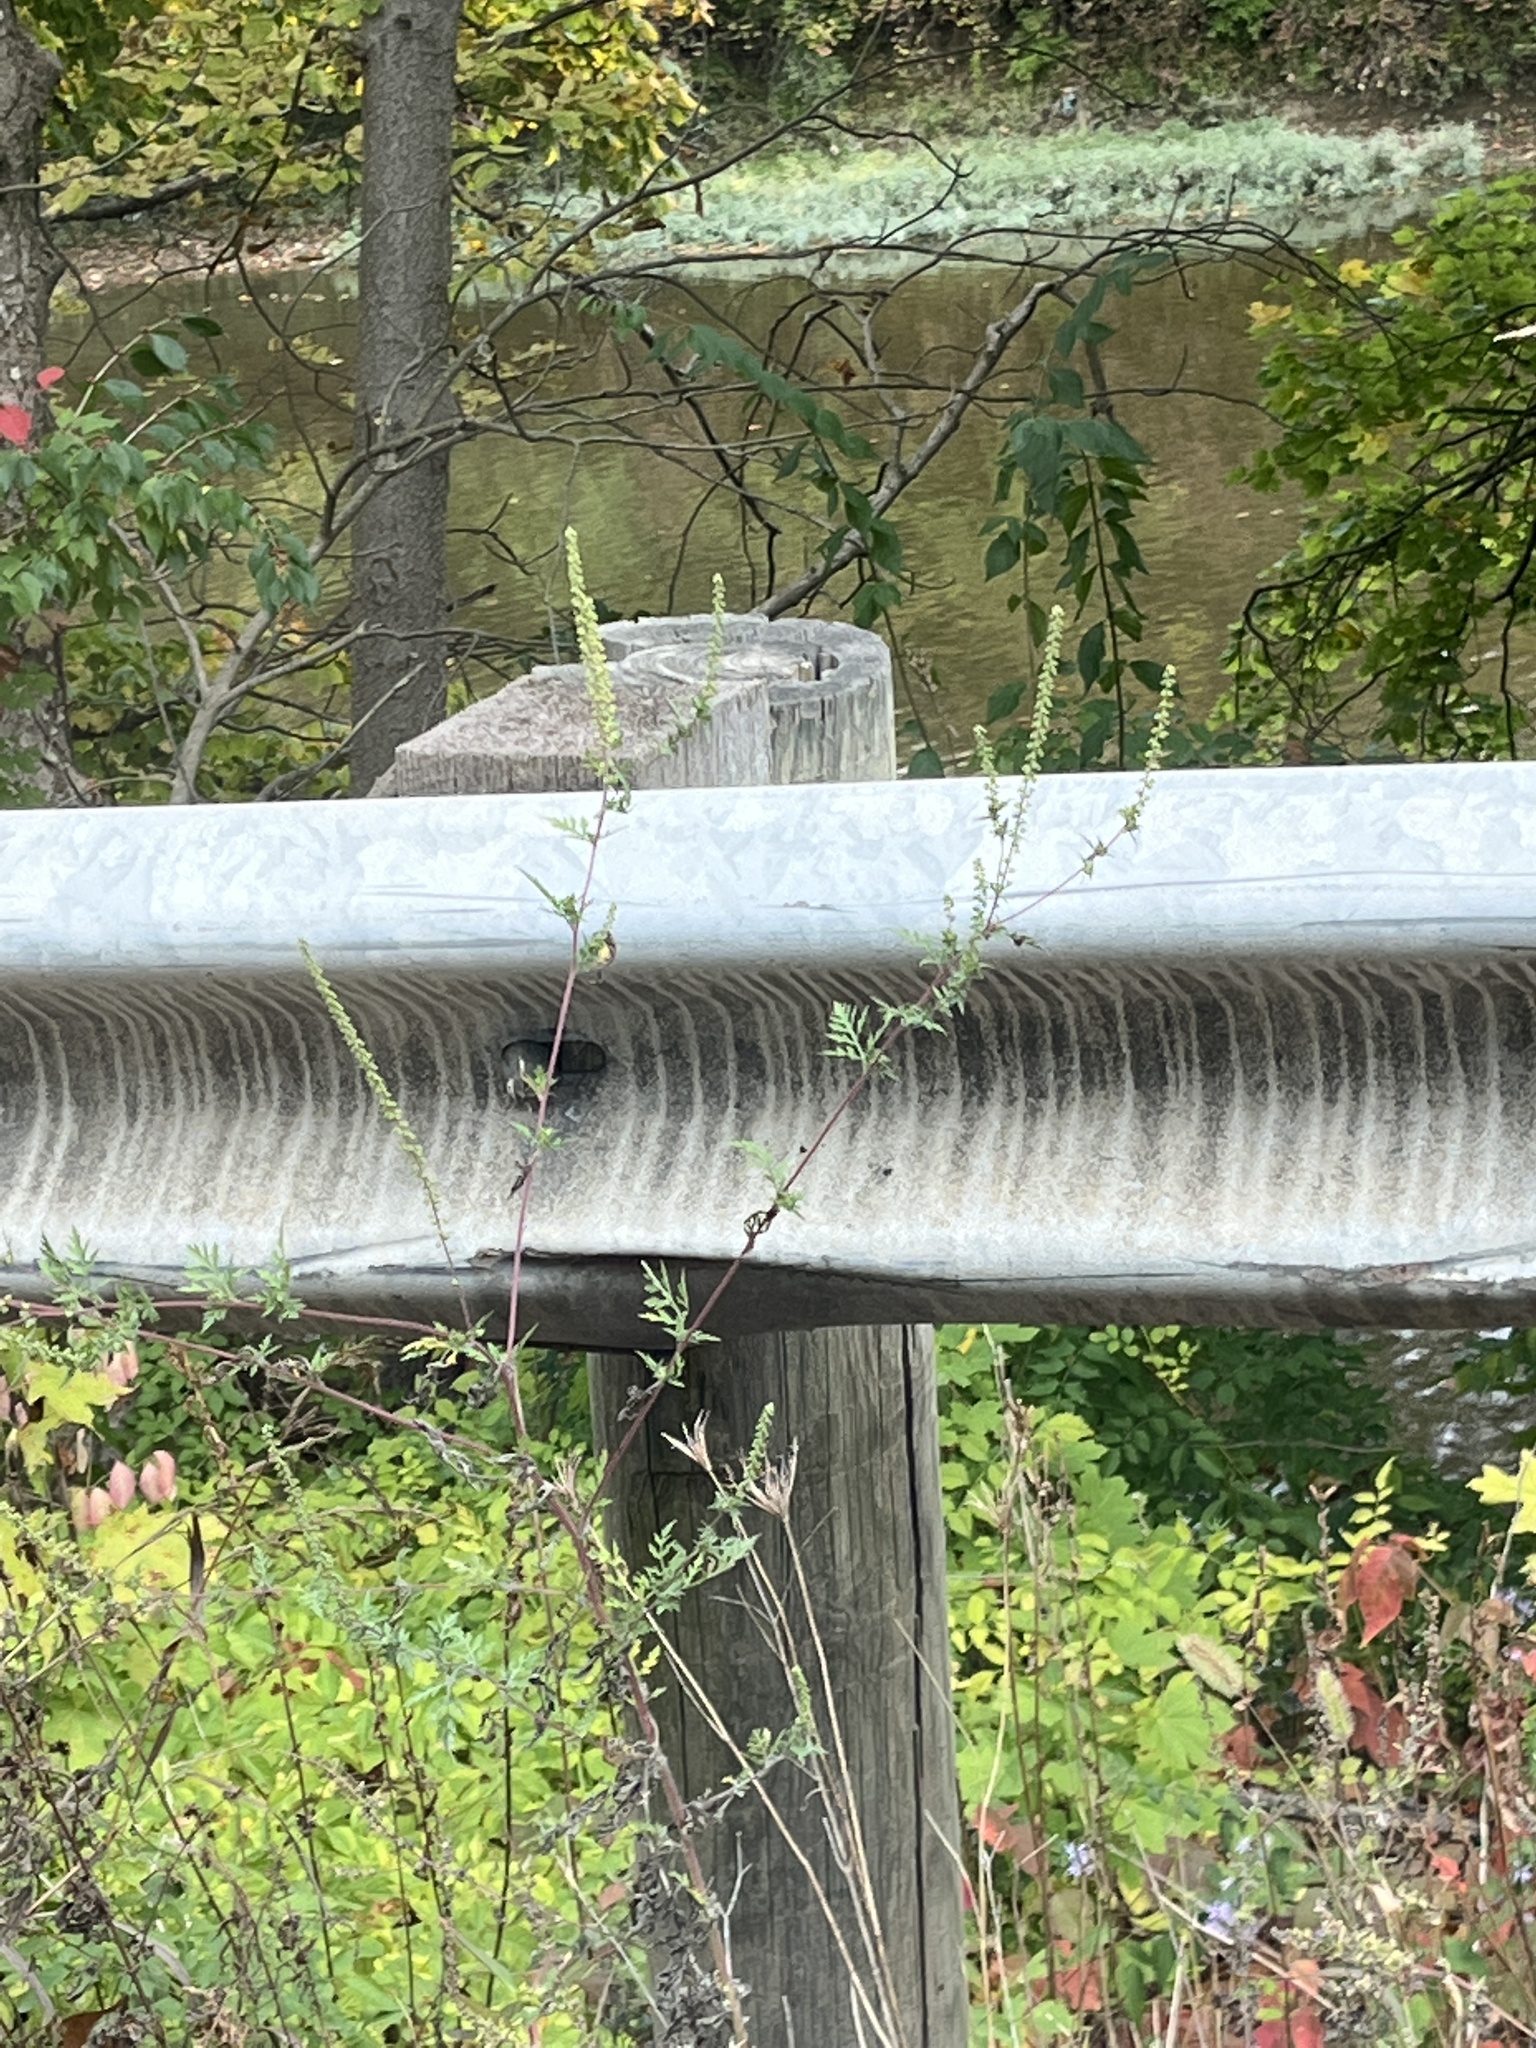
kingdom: Plantae
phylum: Tracheophyta
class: Magnoliopsida
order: Asterales
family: Asteraceae
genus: Ambrosia
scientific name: Ambrosia artemisiifolia
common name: Annual ragweed
